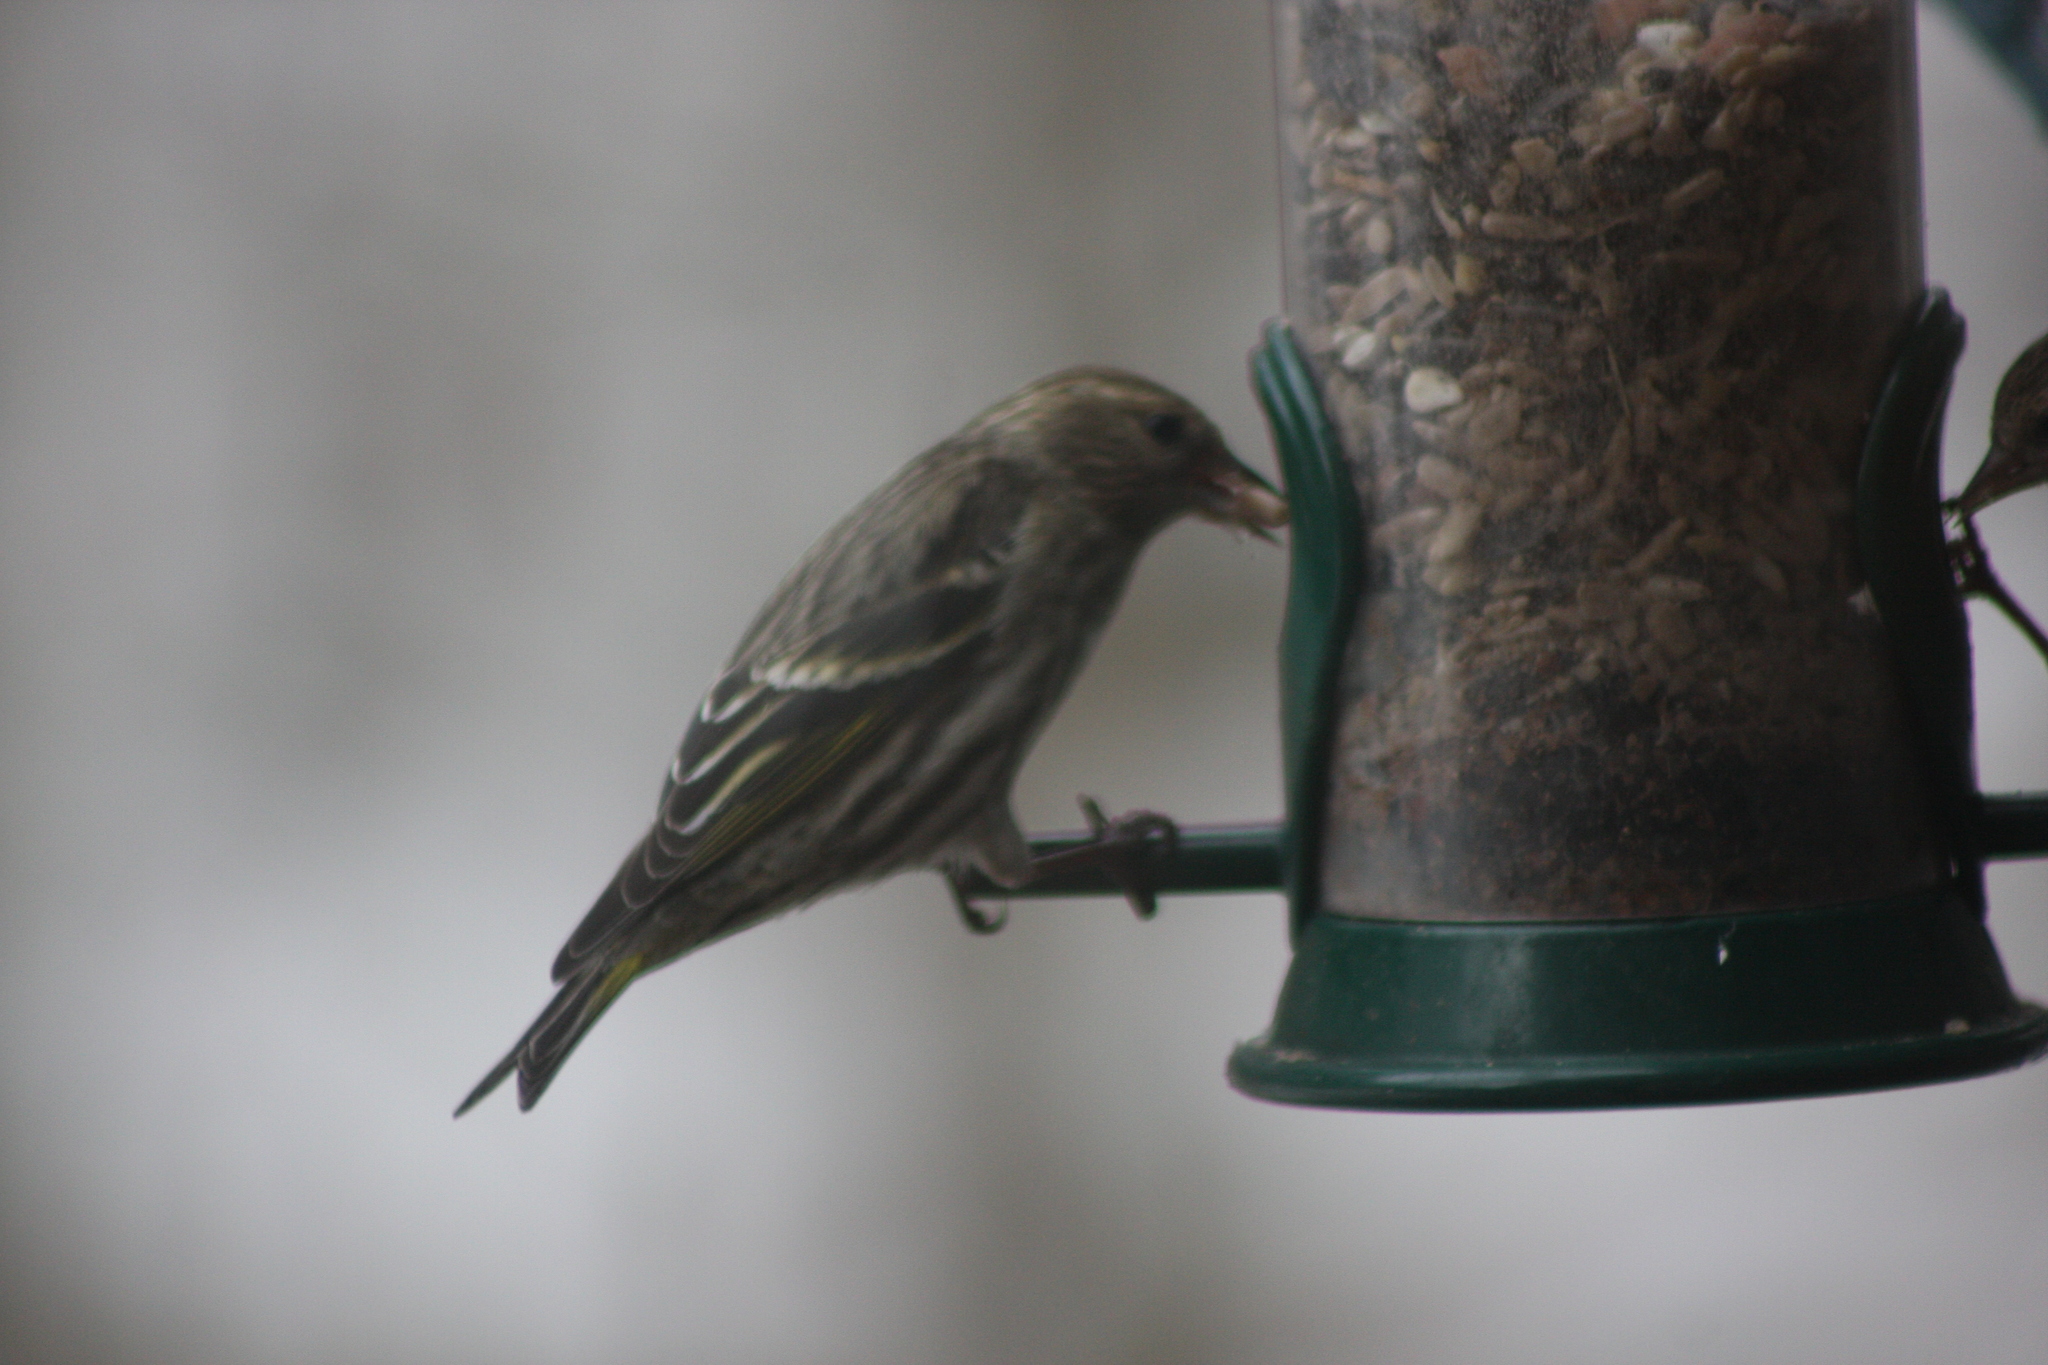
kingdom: Animalia
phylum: Chordata
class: Aves
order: Passeriformes
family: Fringillidae
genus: Spinus
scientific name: Spinus pinus
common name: Pine siskin
